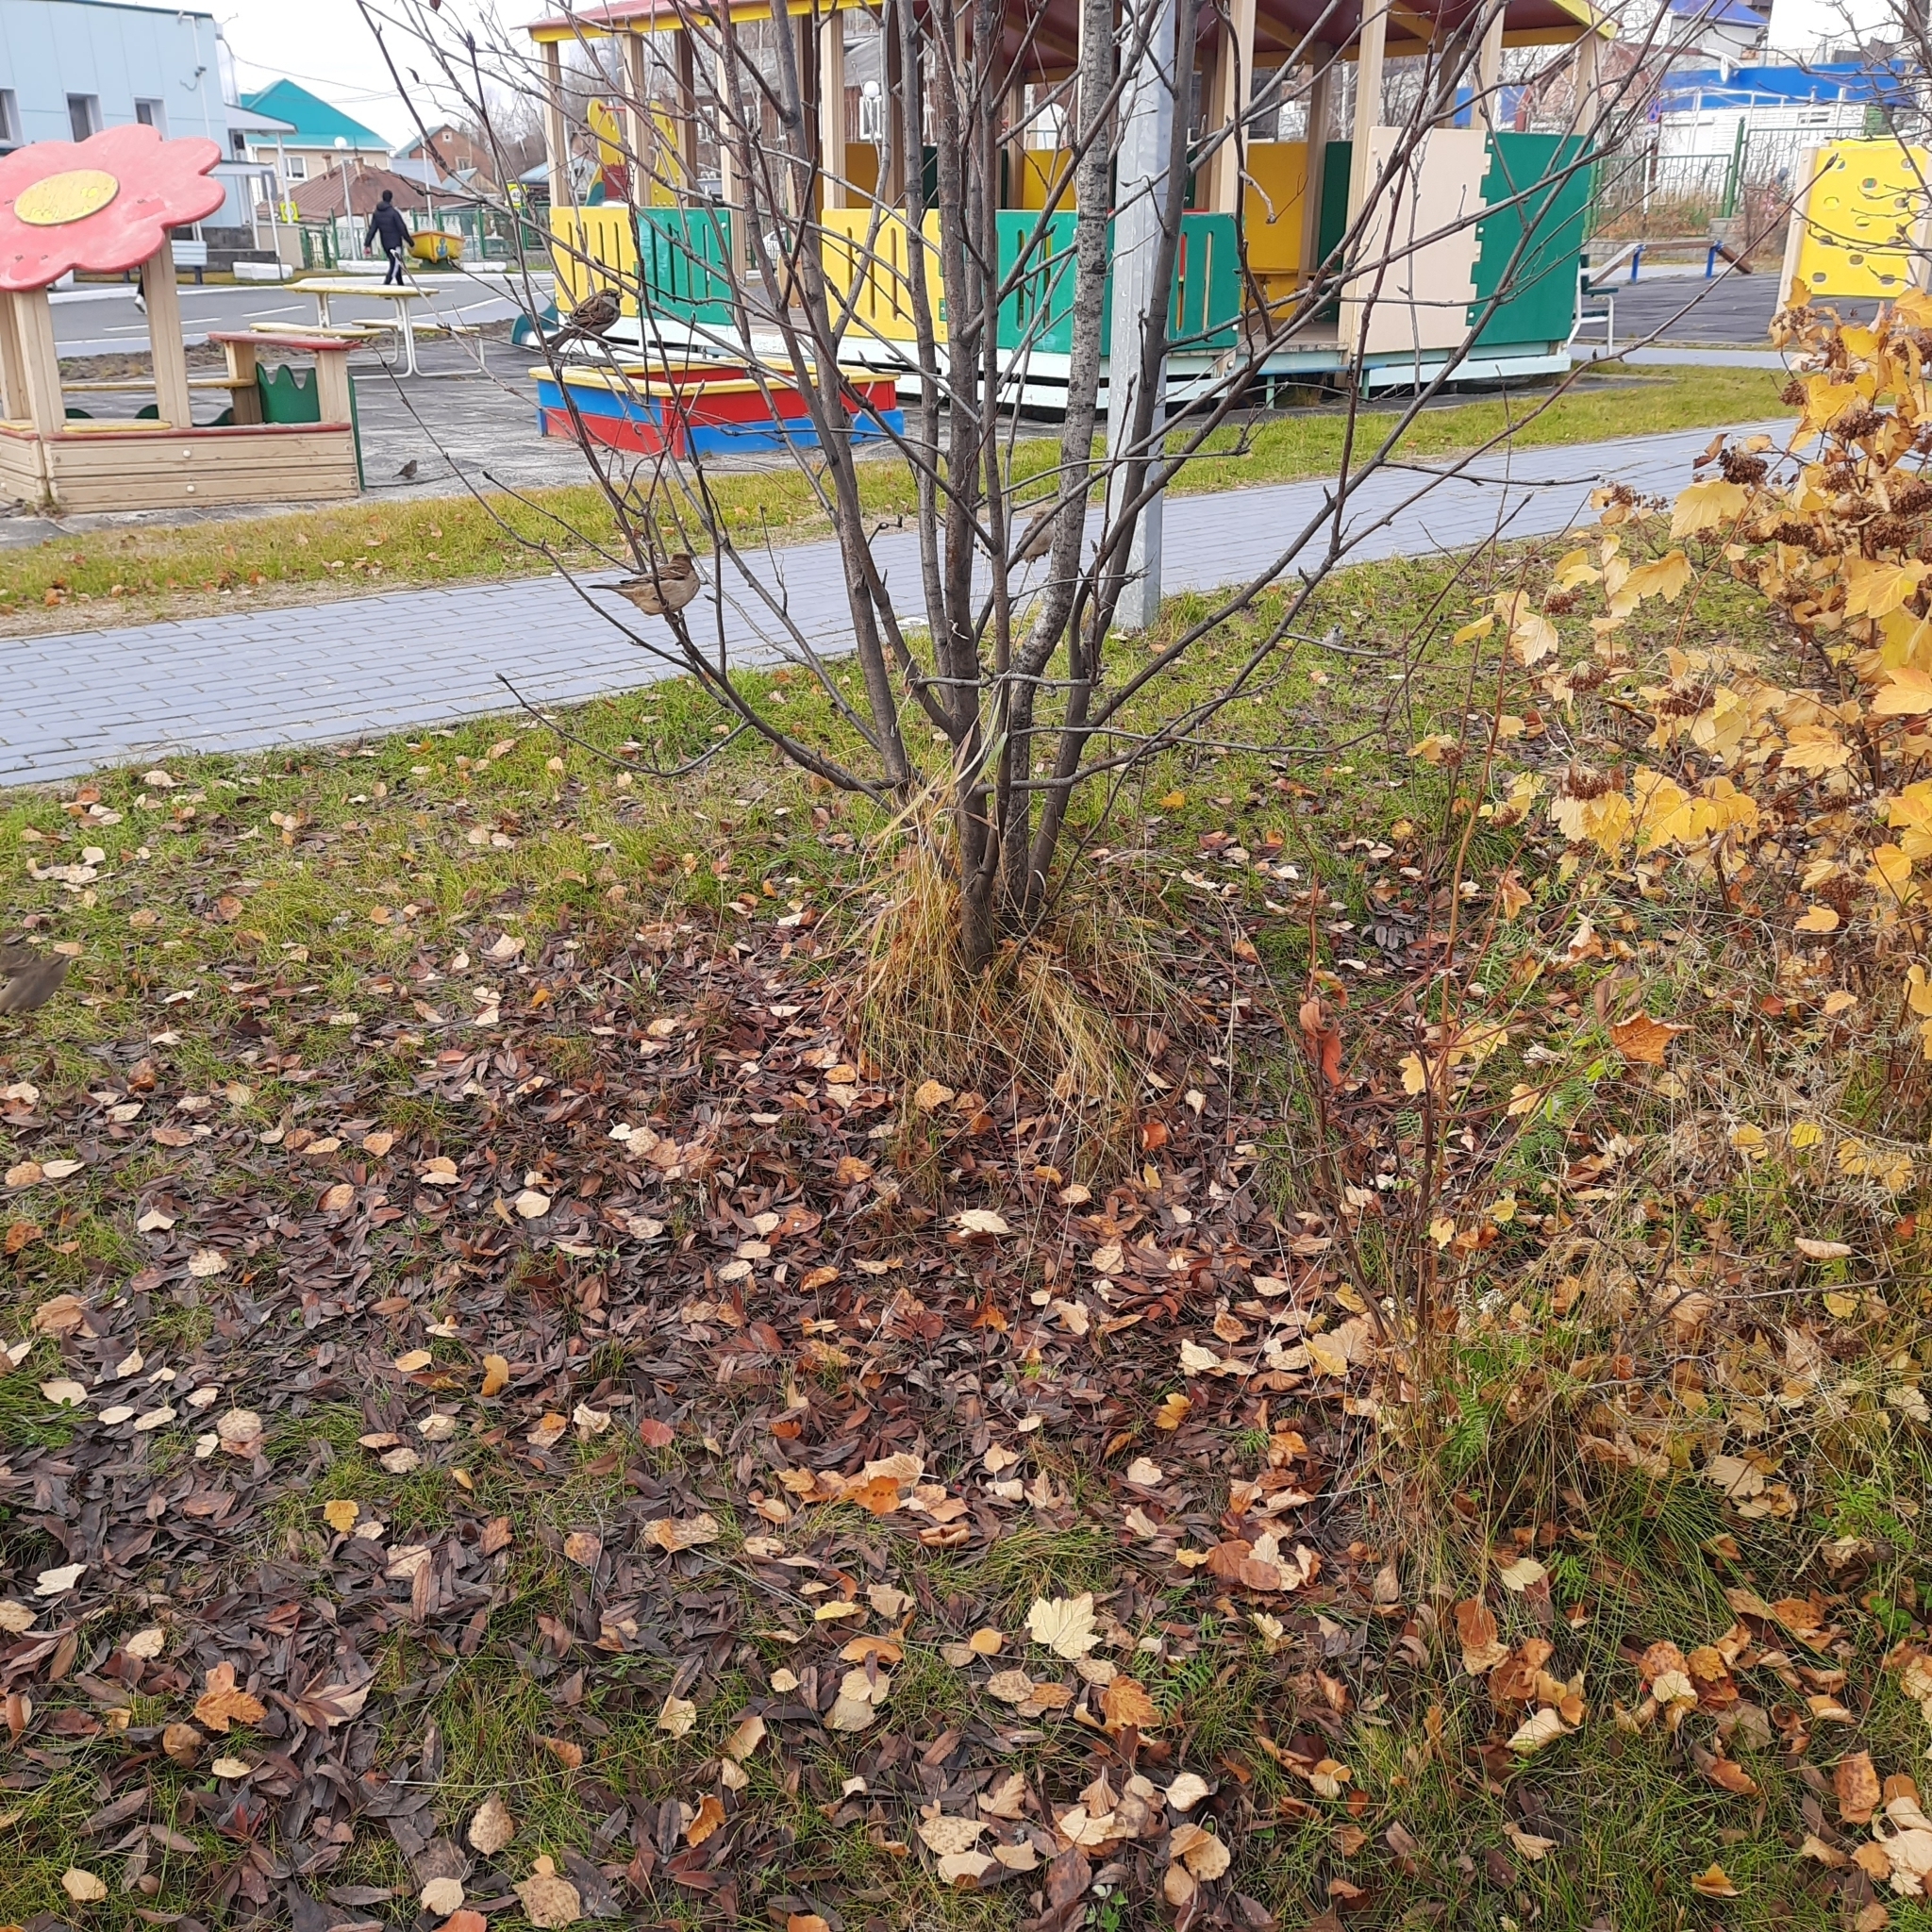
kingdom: Animalia
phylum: Chordata
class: Aves
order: Passeriformes
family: Passeridae
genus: Passer
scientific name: Passer domesticus
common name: House sparrow
